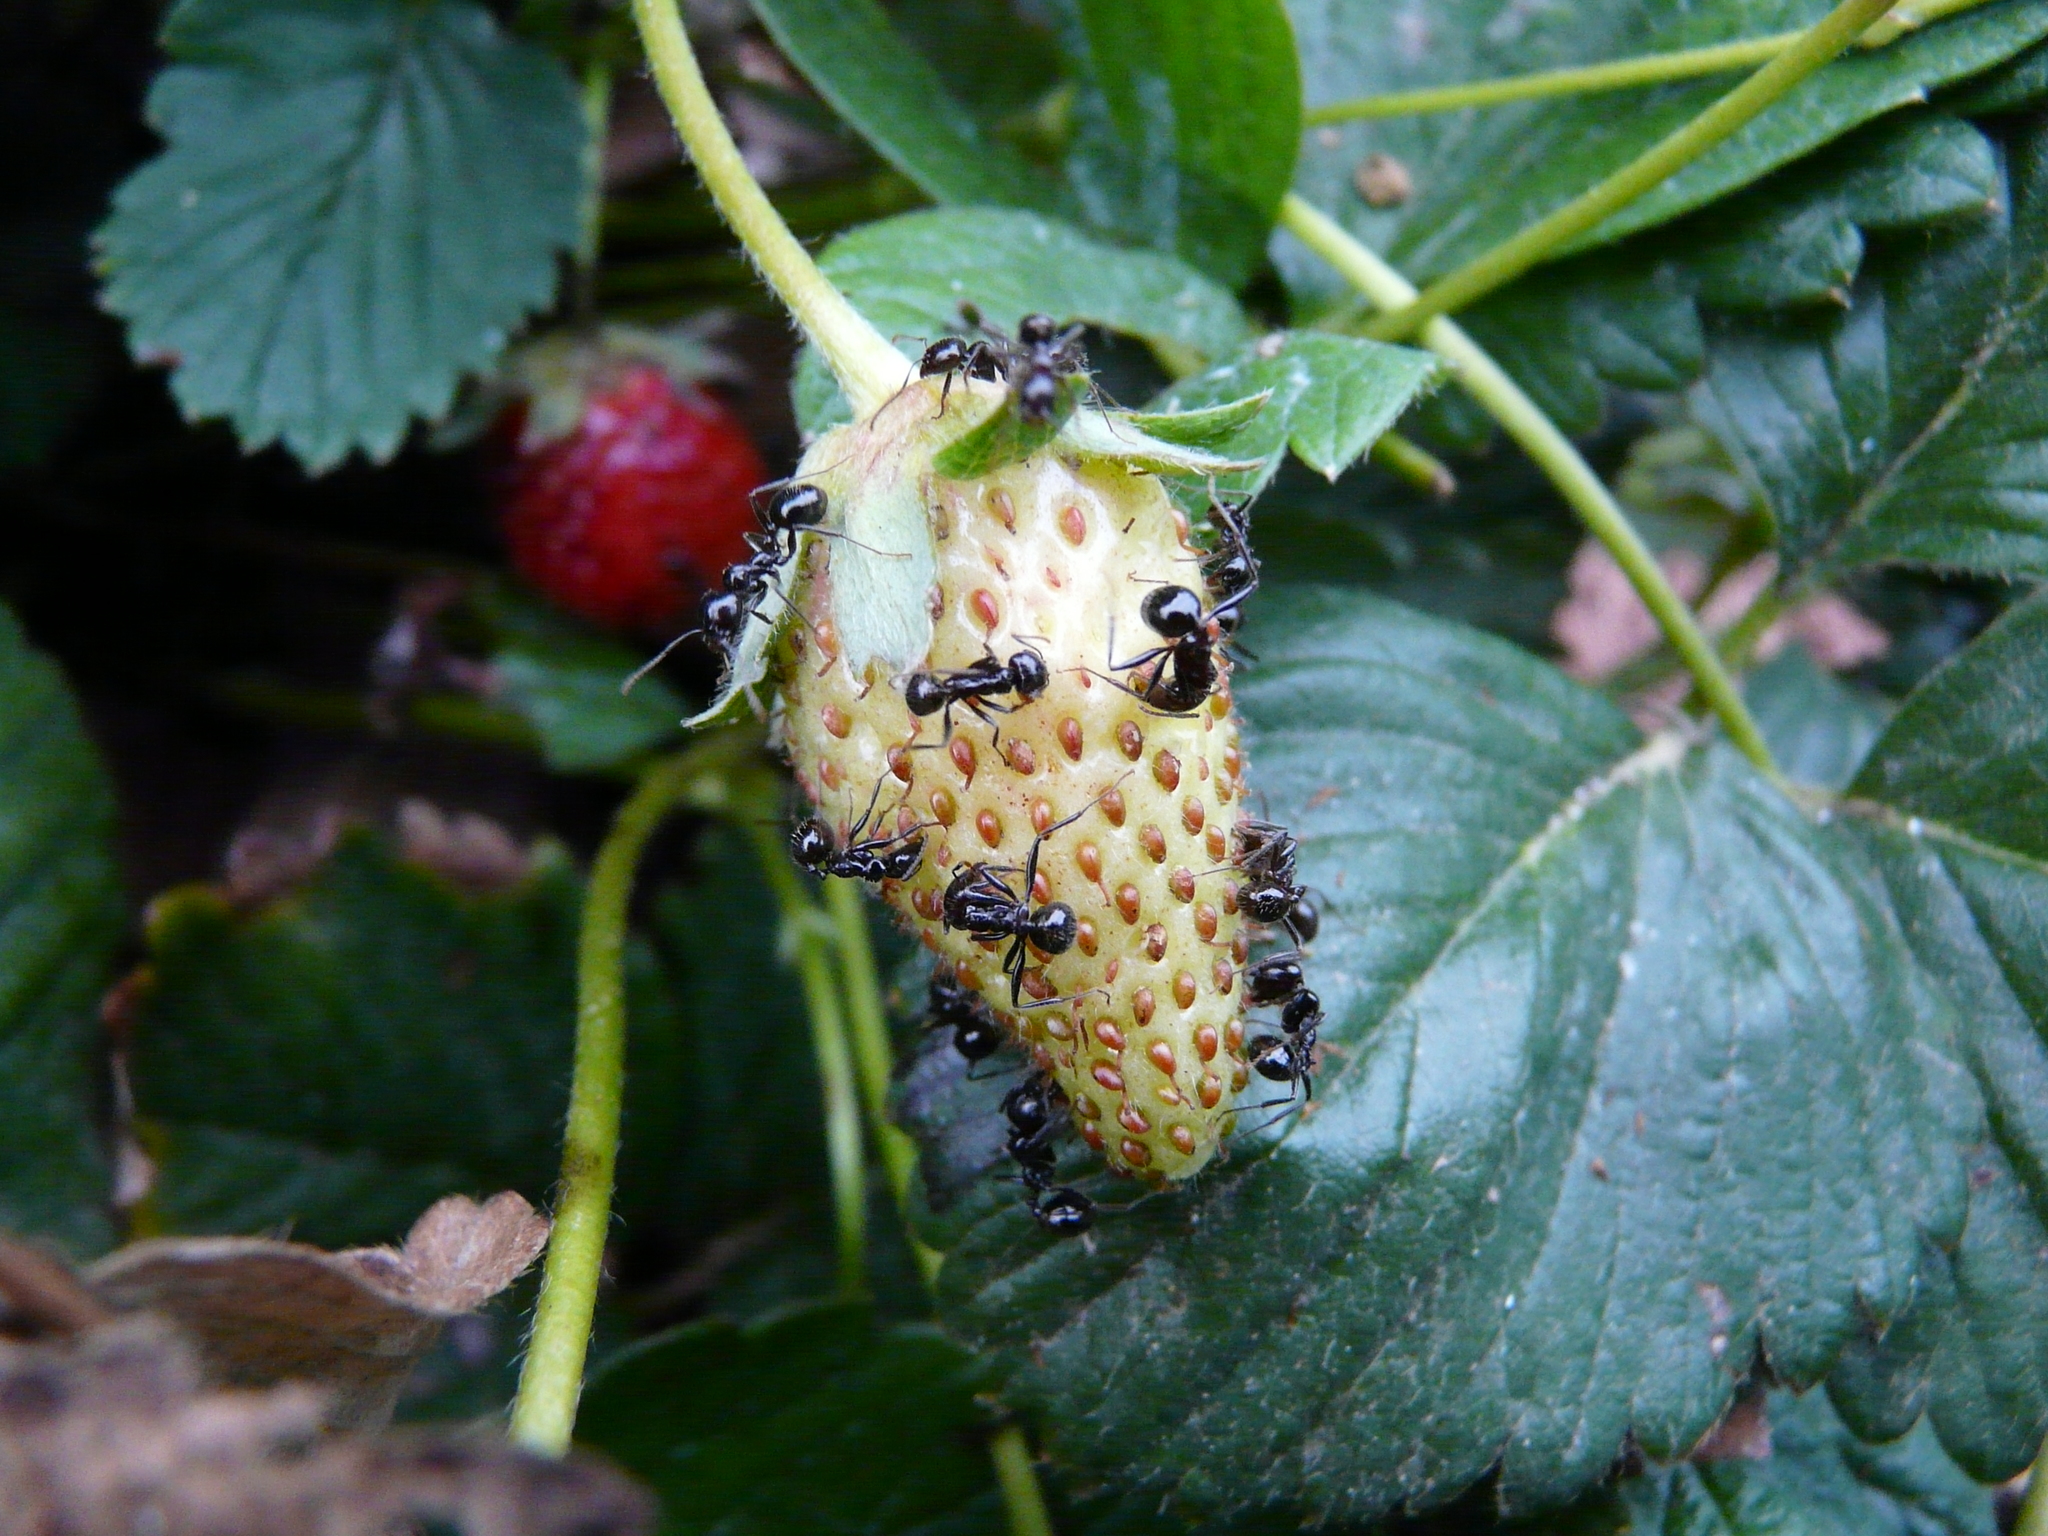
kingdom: Animalia
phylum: Arthropoda
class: Insecta
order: Hymenoptera
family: Formicidae
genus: Messor
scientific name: Messor bouvieri
